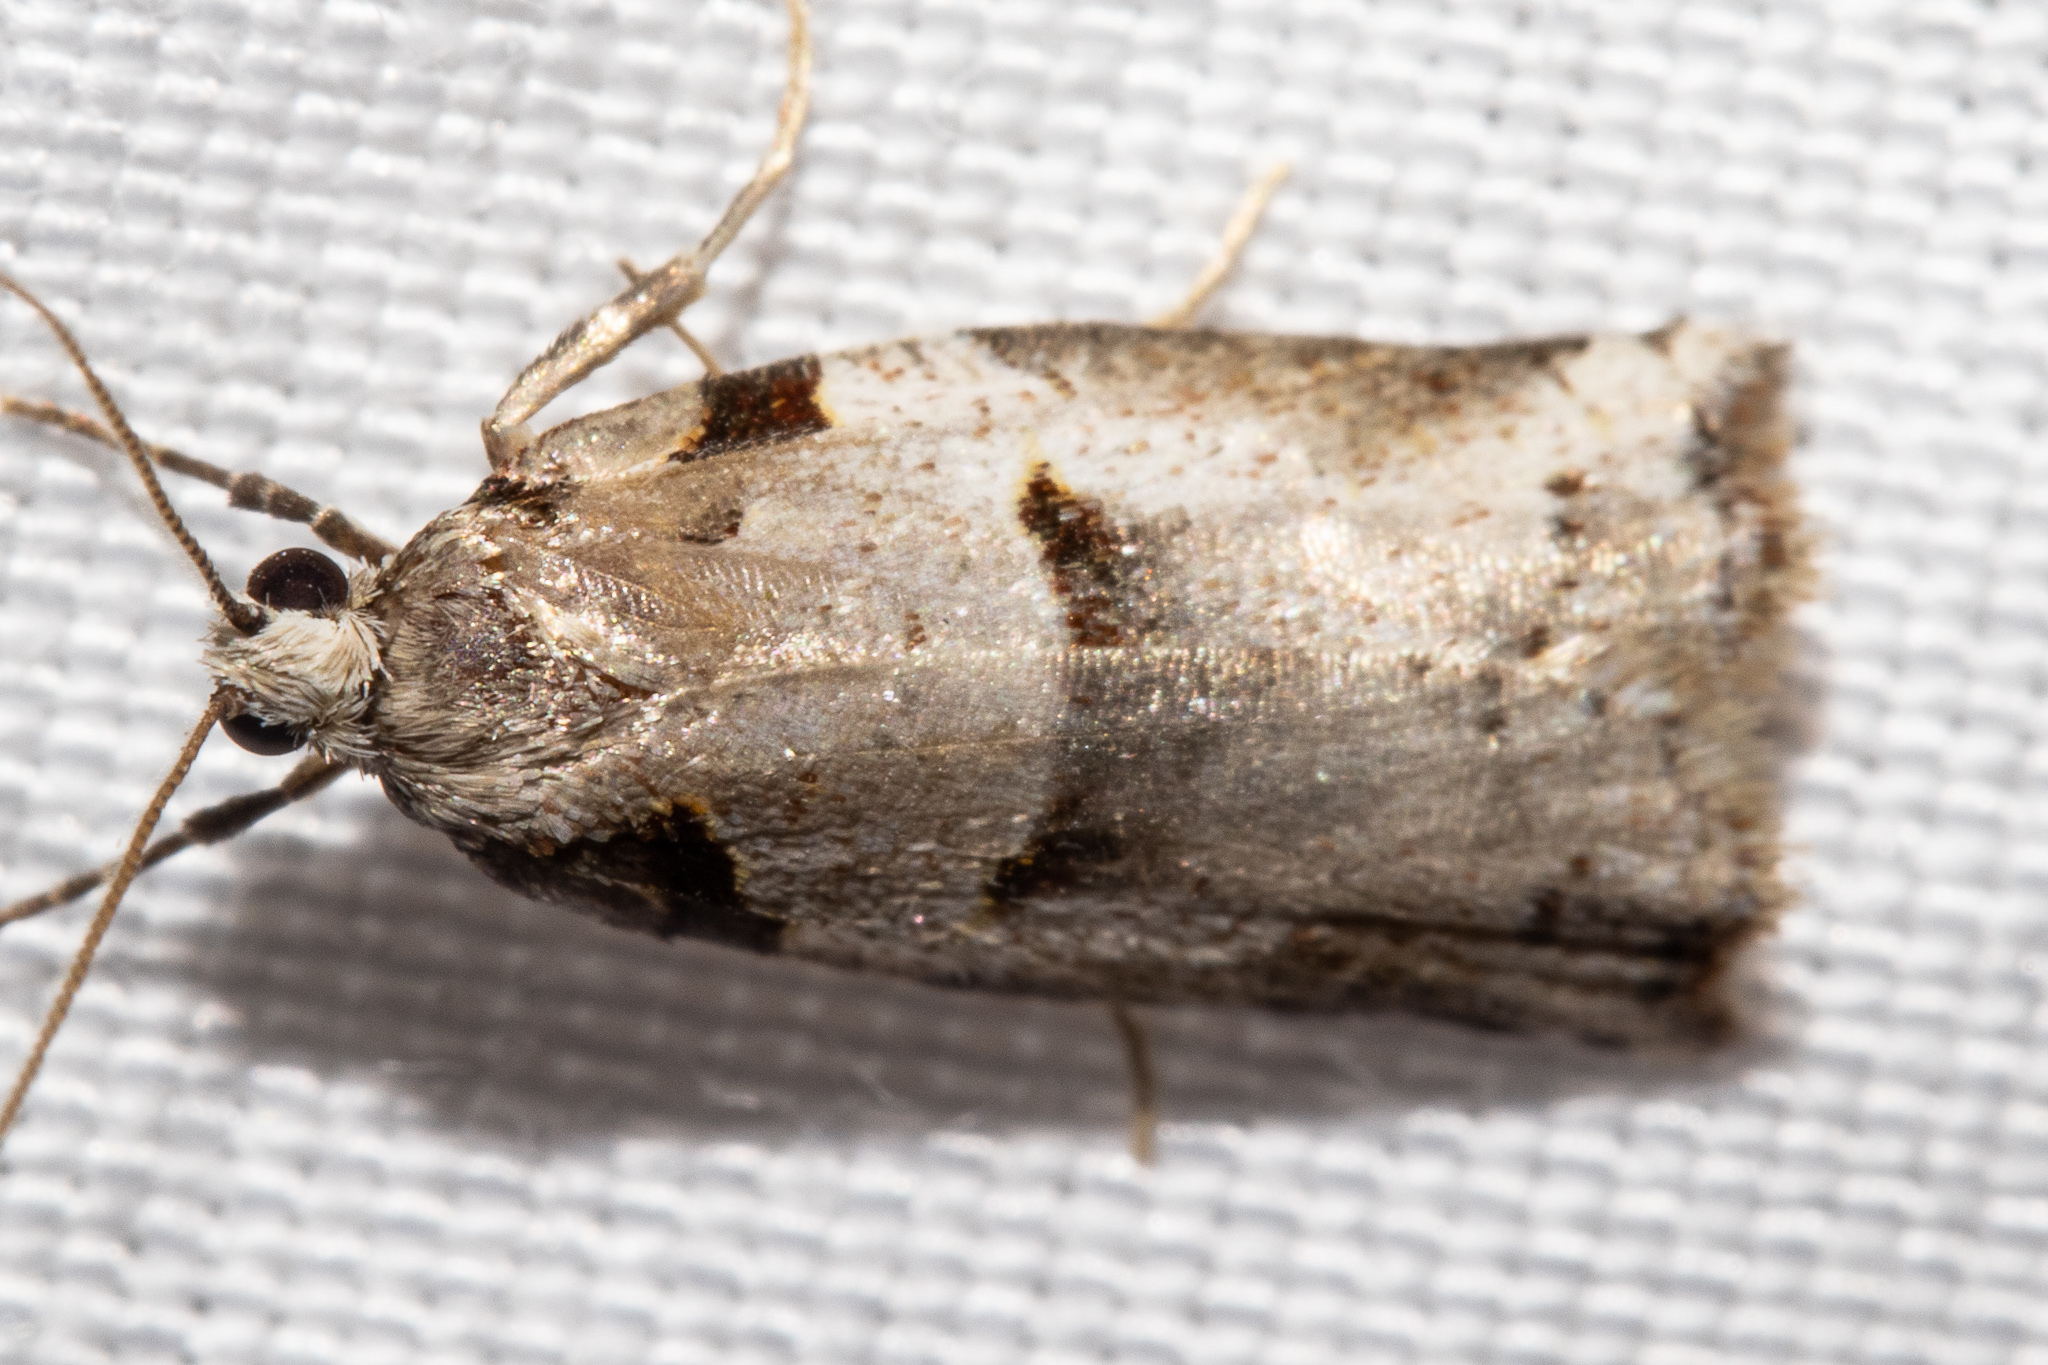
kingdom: Animalia
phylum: Arthropoda
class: Insecta
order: Lepidoptera
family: Tortricidae
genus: Harmologa
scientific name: Harmologa amplexana
